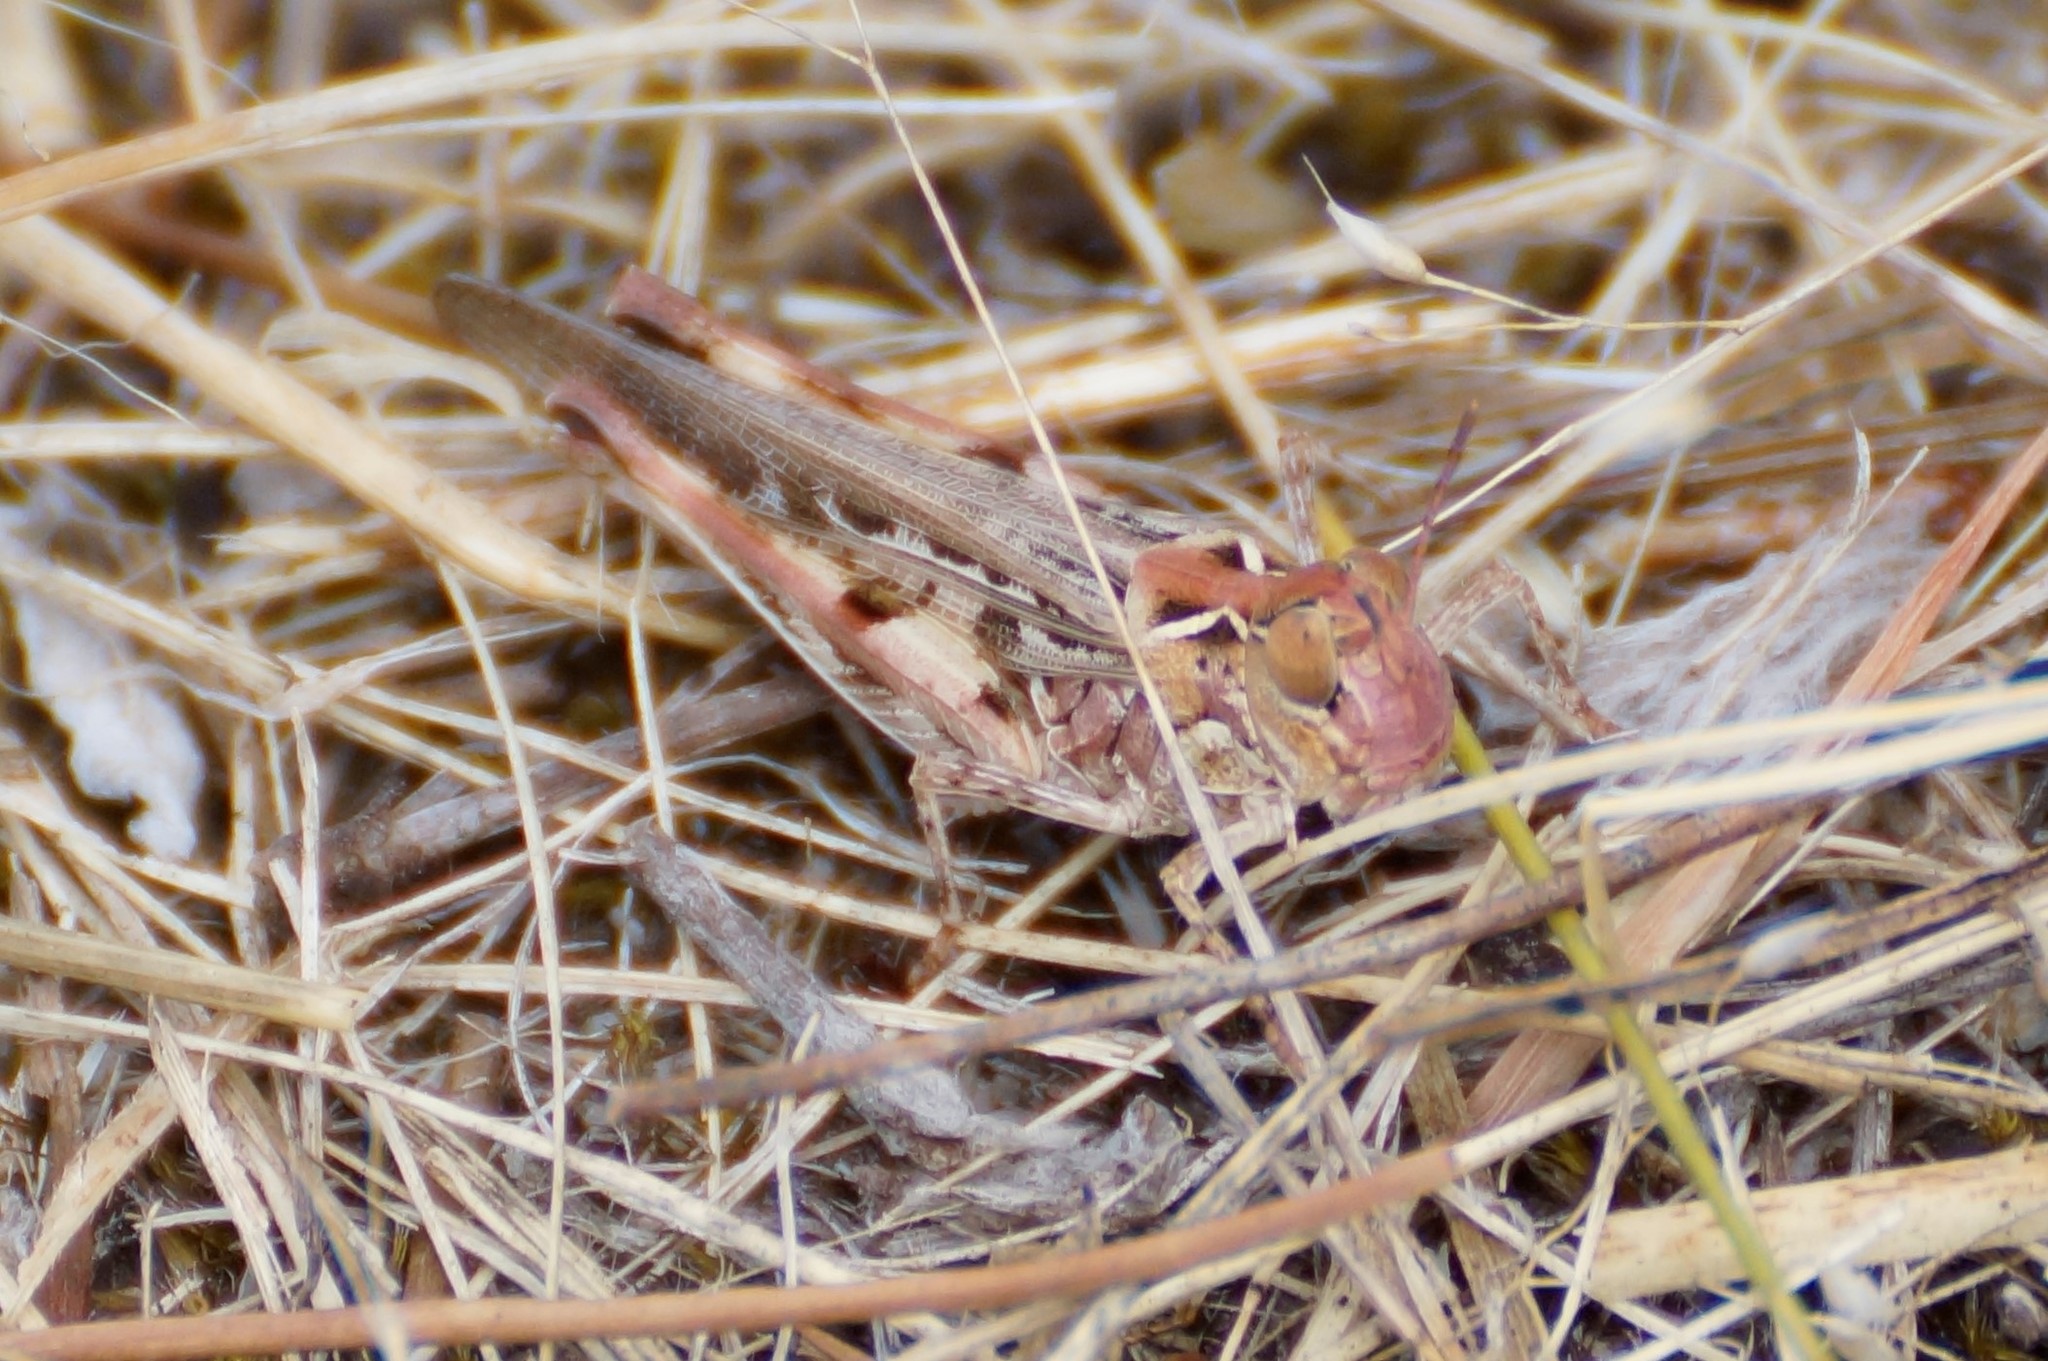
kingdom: Animalia
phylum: Arthropoda
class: Insecta
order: Orthoptera
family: Acrididae
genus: Austroicetes
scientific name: Austroicetes pusilla
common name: Confusing austroicetes
